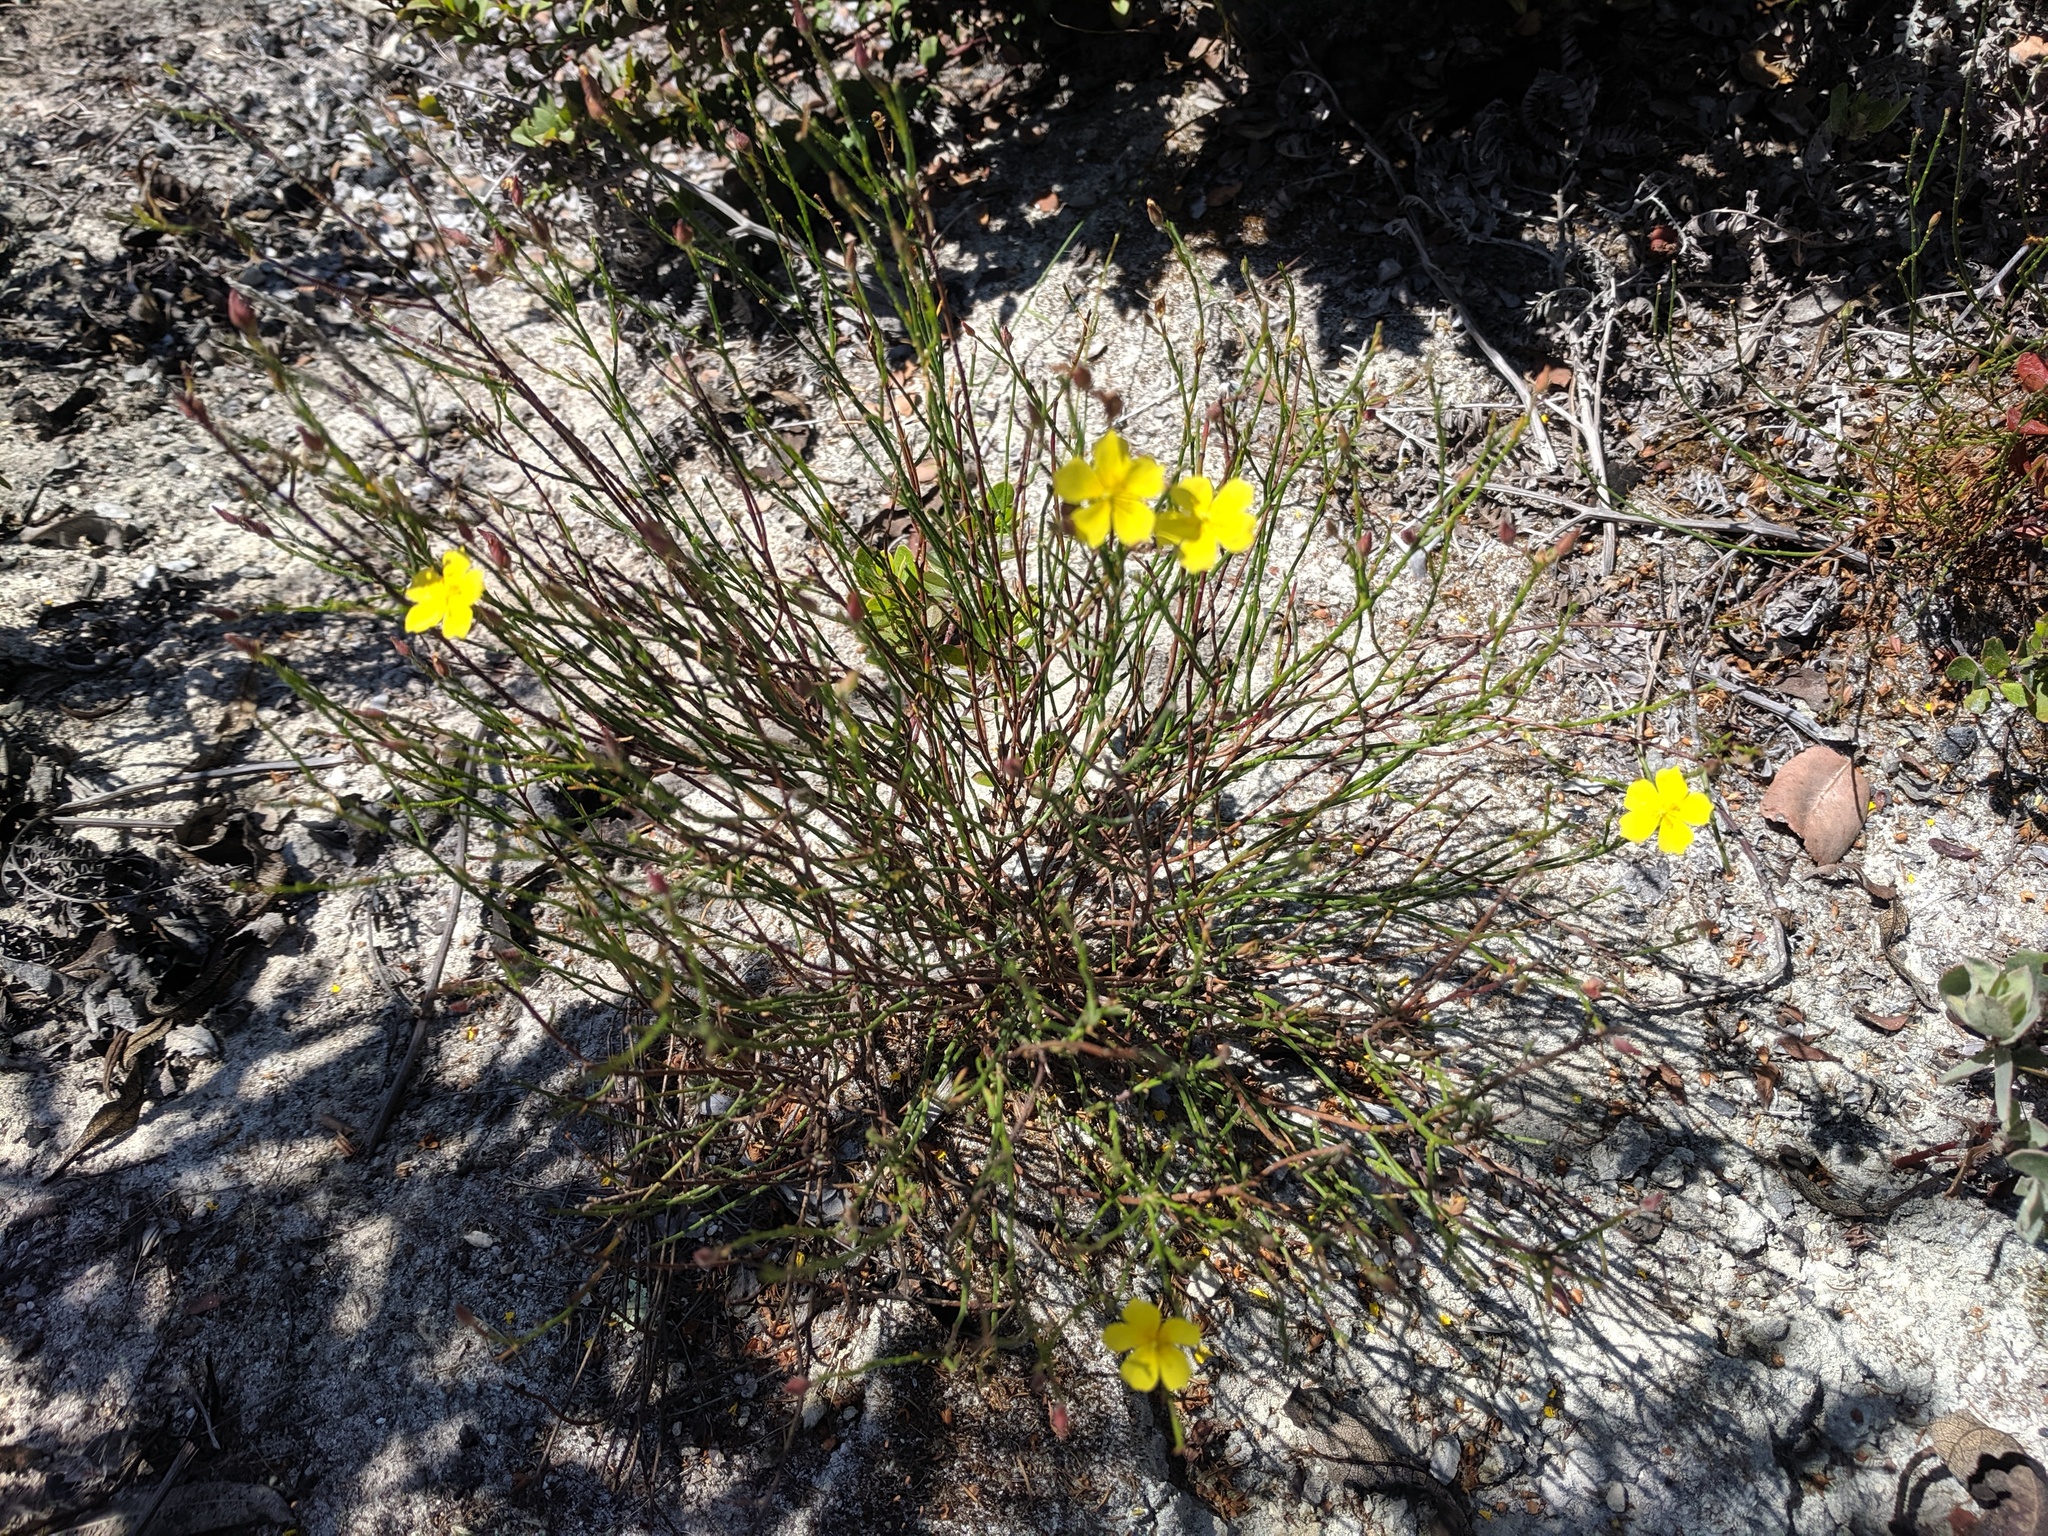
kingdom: Plantae
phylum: Tracheophyta
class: Magnoliopsida
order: Malvales
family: Cistaceae
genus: Crocanthemum
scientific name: Crocanthemum scoparium
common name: Broom-rose
